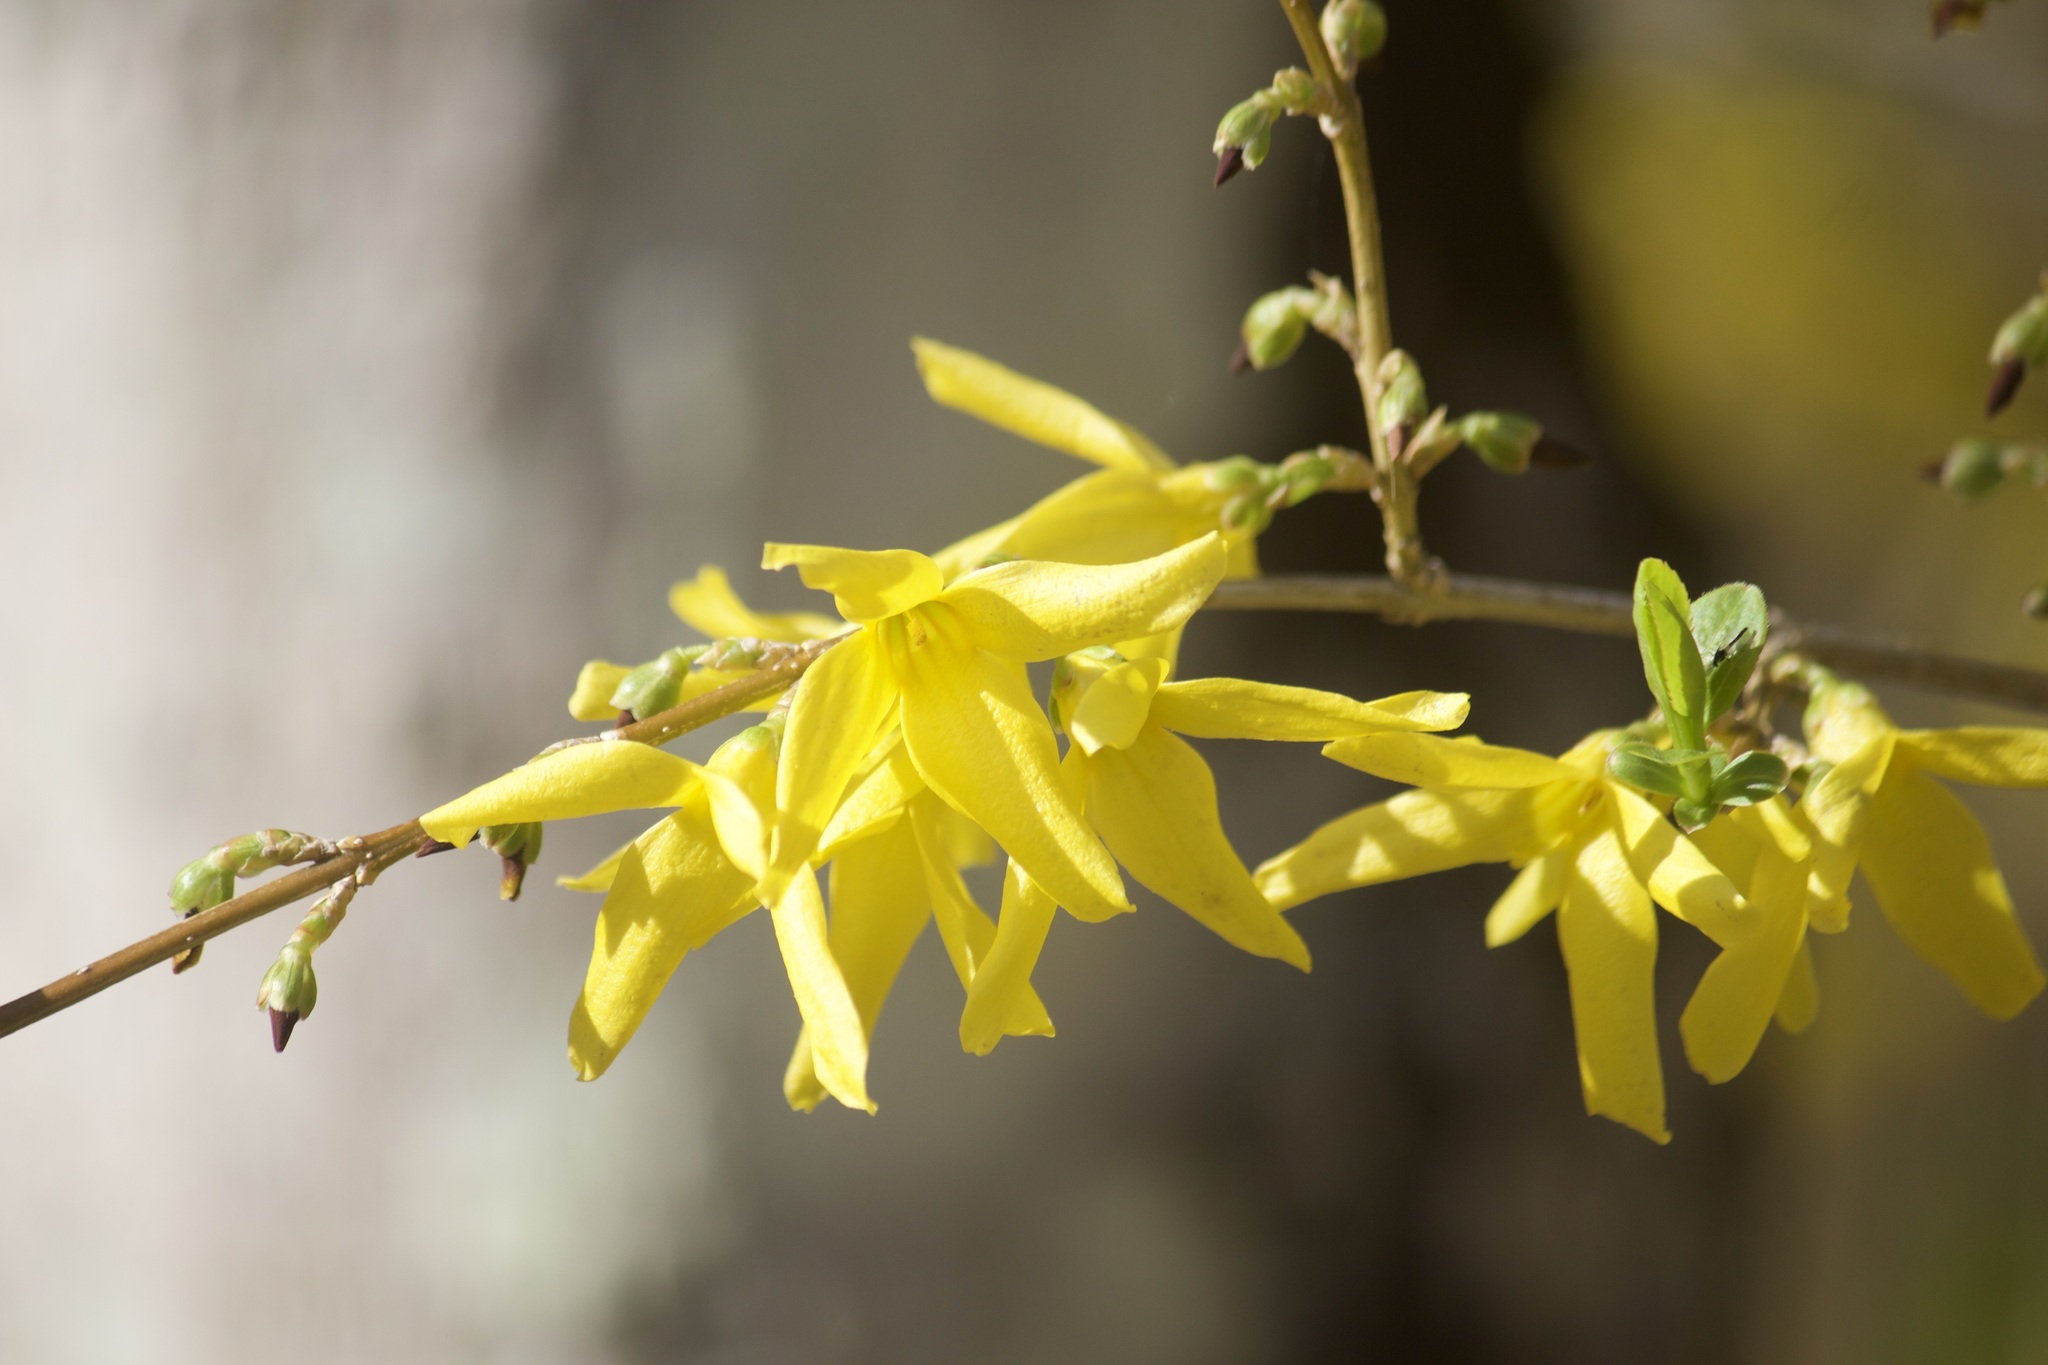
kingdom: Plantae
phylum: Tracheophyta
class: Magnoliopsida
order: Lamiales
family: Oleaceae
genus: Forsythia
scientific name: Forsythia intermedia
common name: Forsythia
